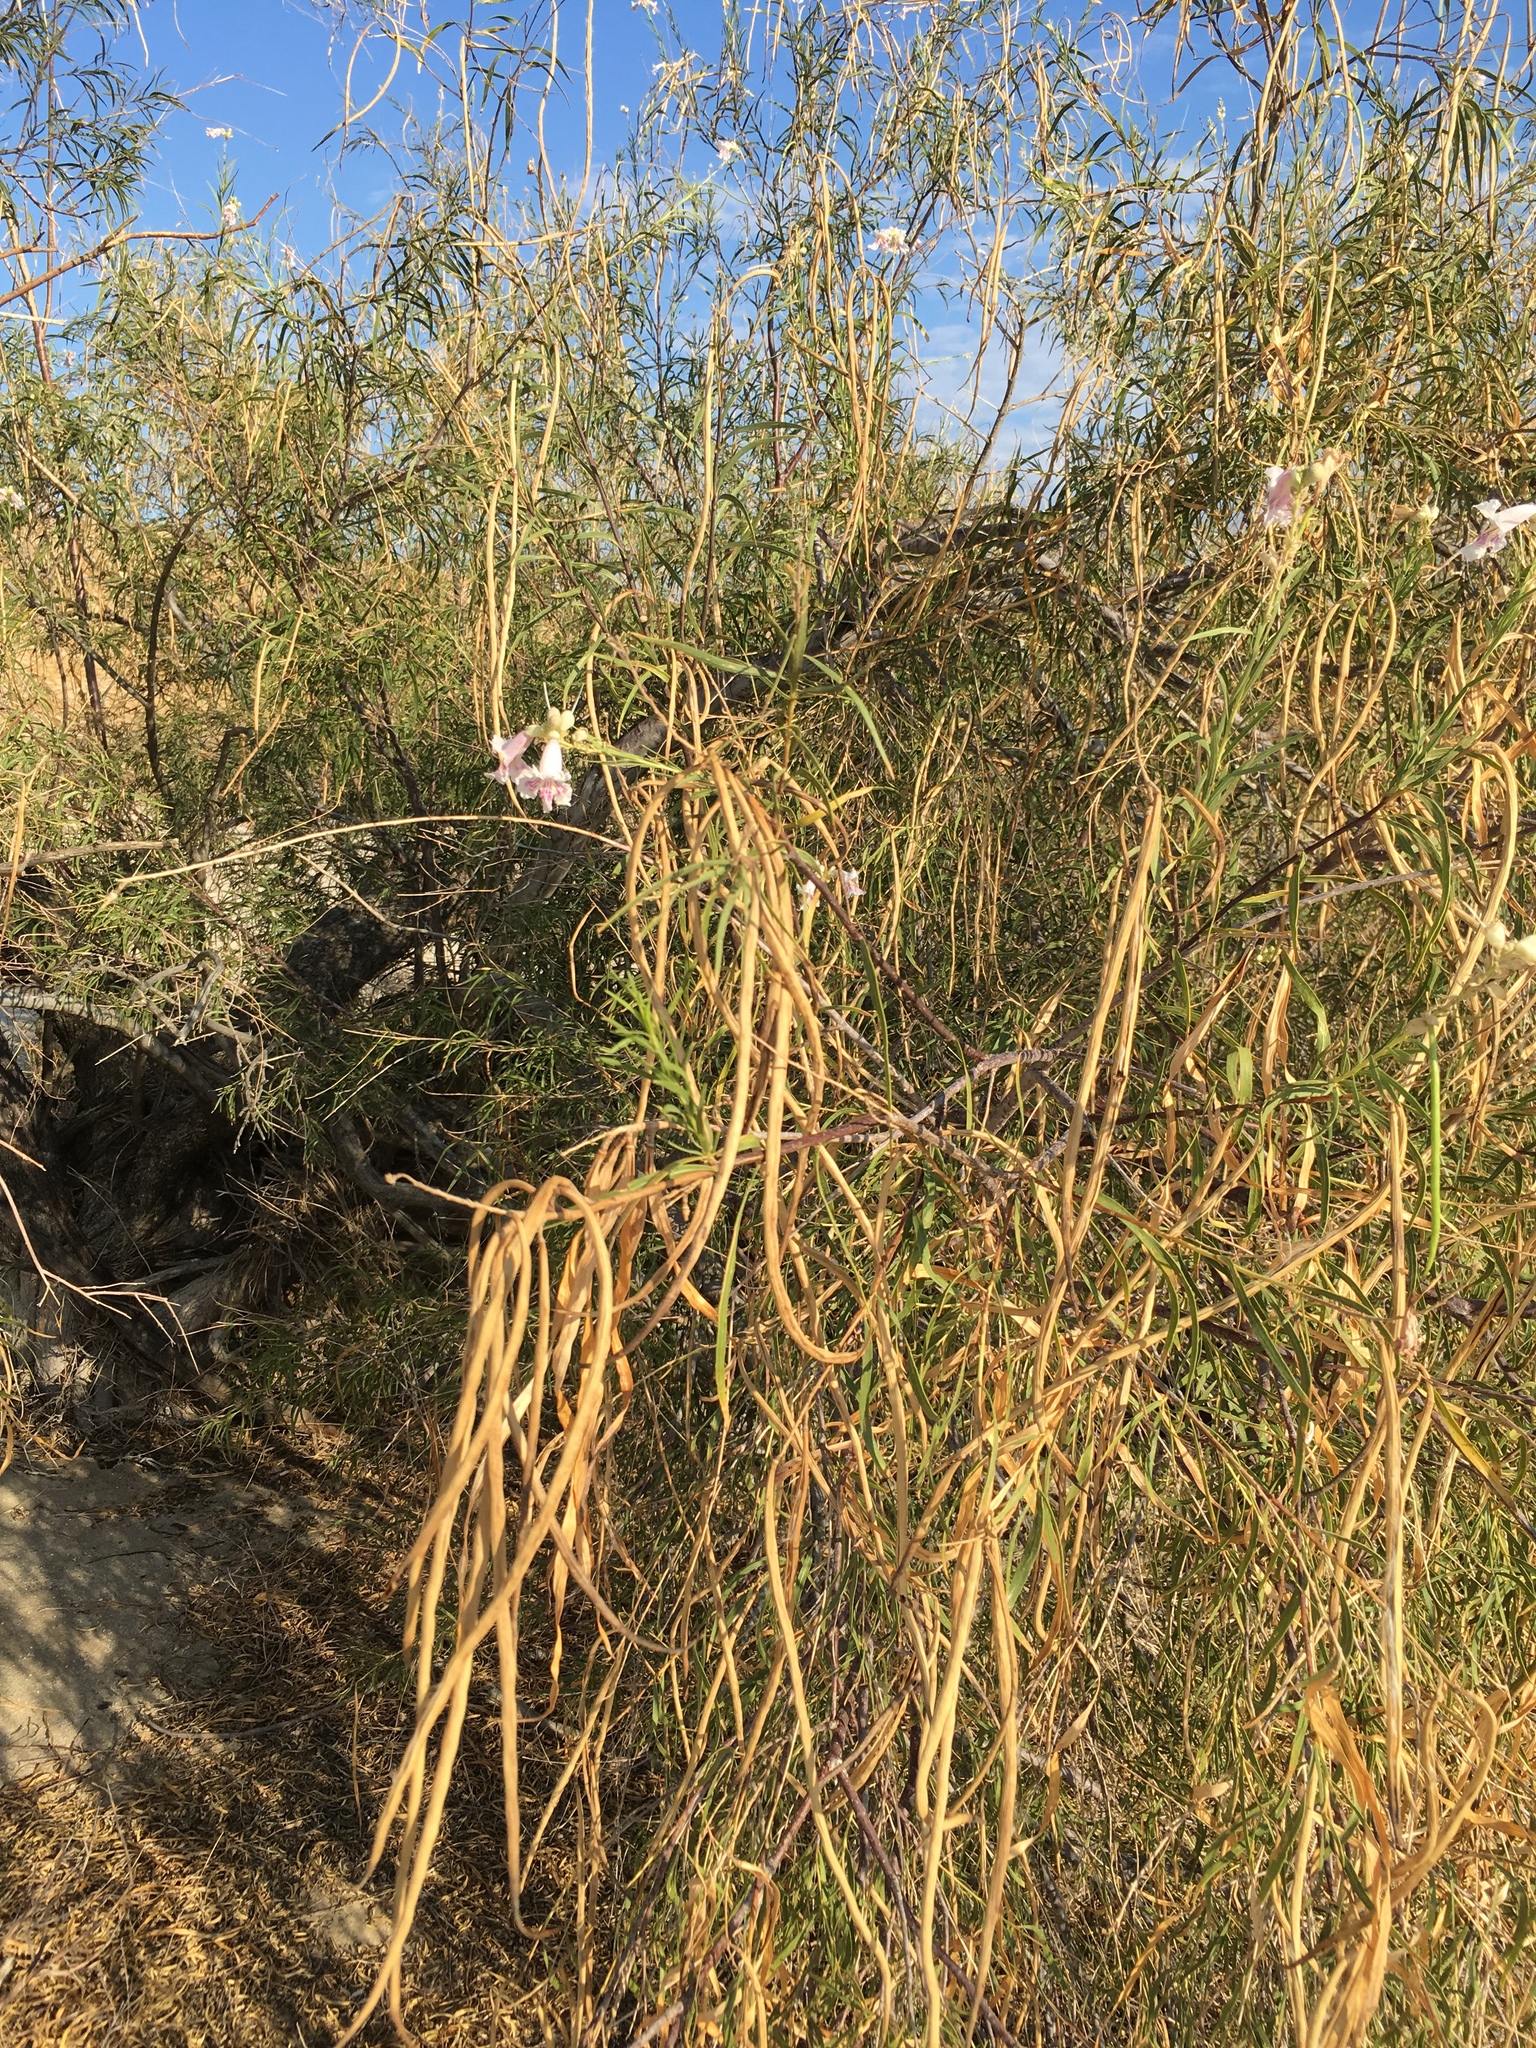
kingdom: Plantae
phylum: Tracheophyta
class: Magnoliopsida
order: Lamiales
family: Bignoniaceae
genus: Chilopsis
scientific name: Chilopsis linearis
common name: Desert-willow
